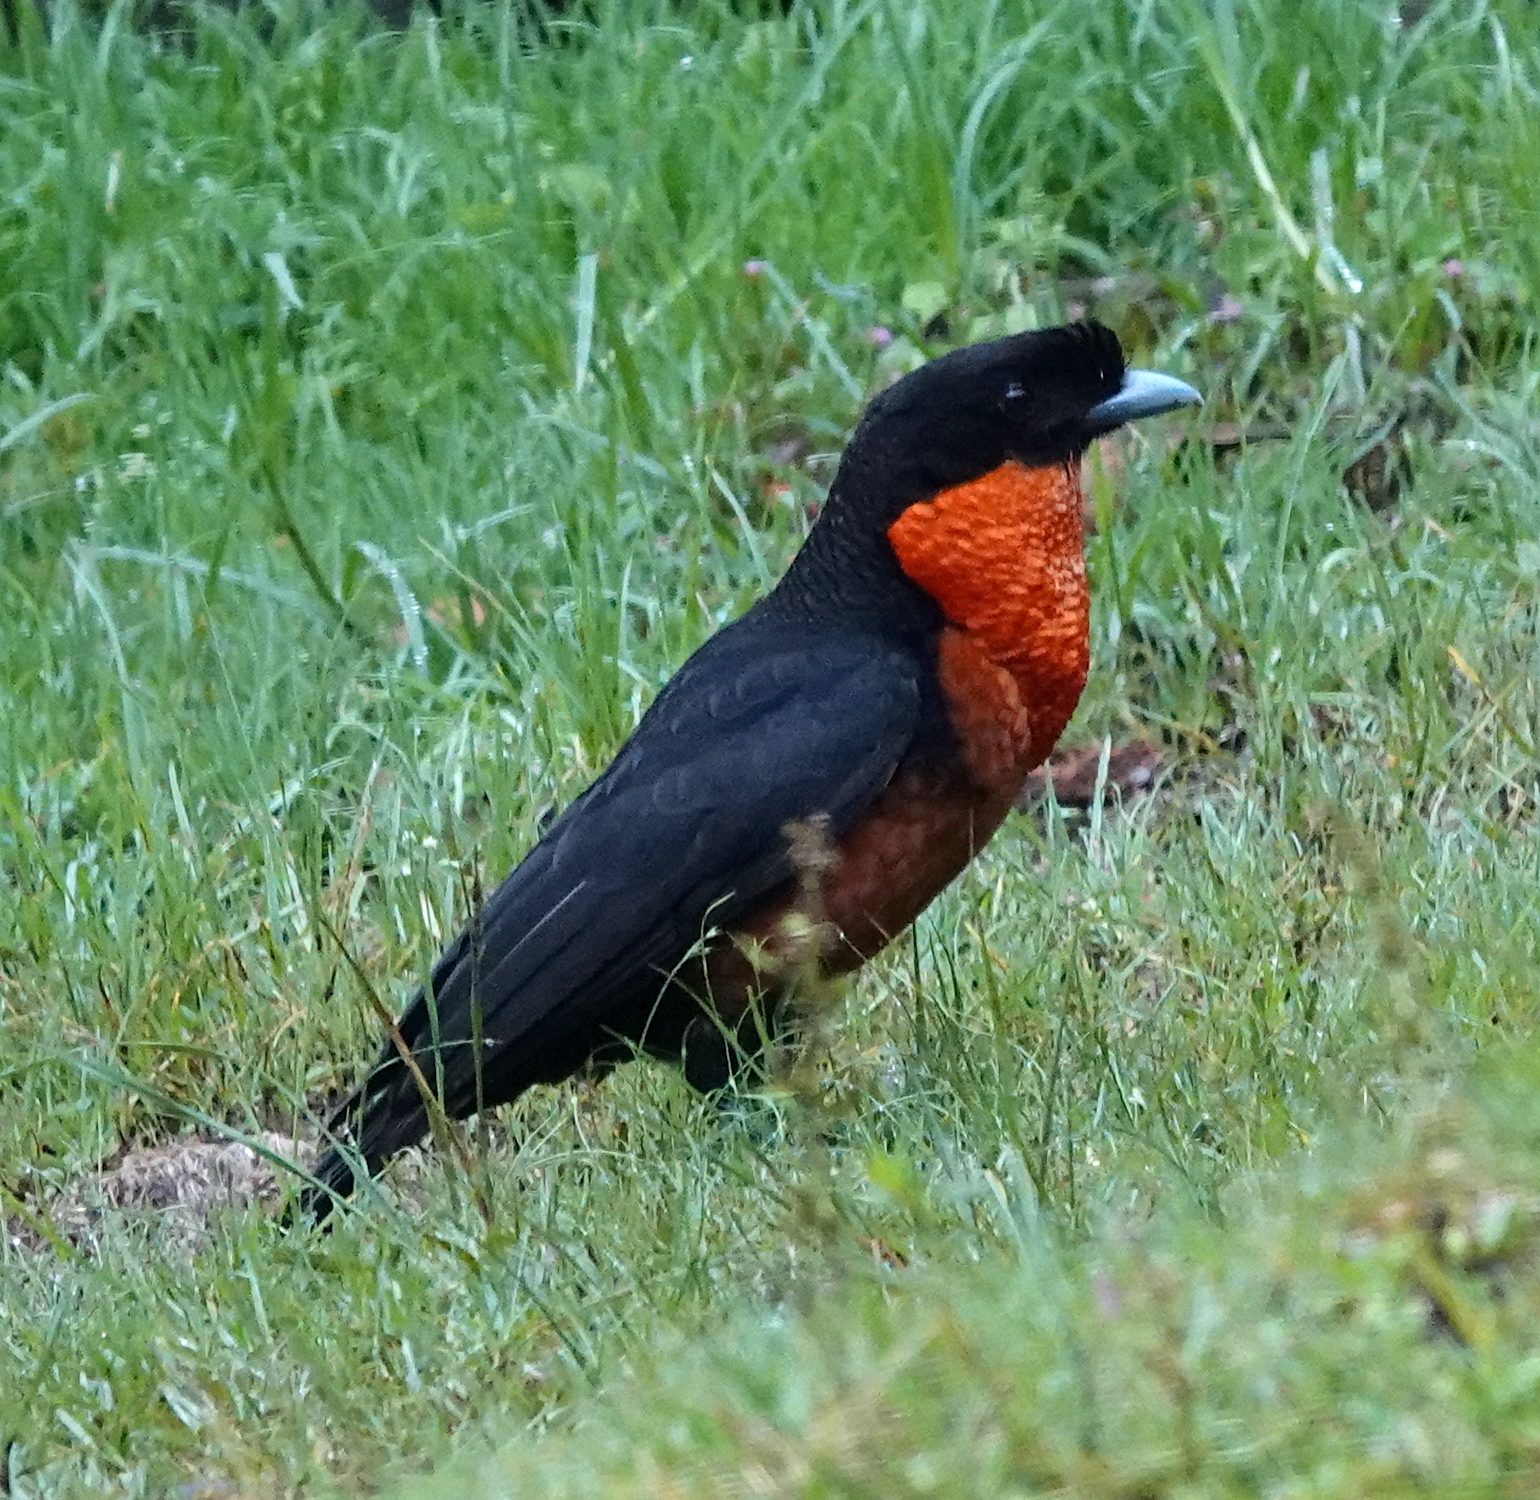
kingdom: Animalia
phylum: Chordata
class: Aves
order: Passeriformes
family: Cotingidae
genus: Pyroderus
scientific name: Pyroderus scutatus
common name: Red-ruffed fruitcrow
